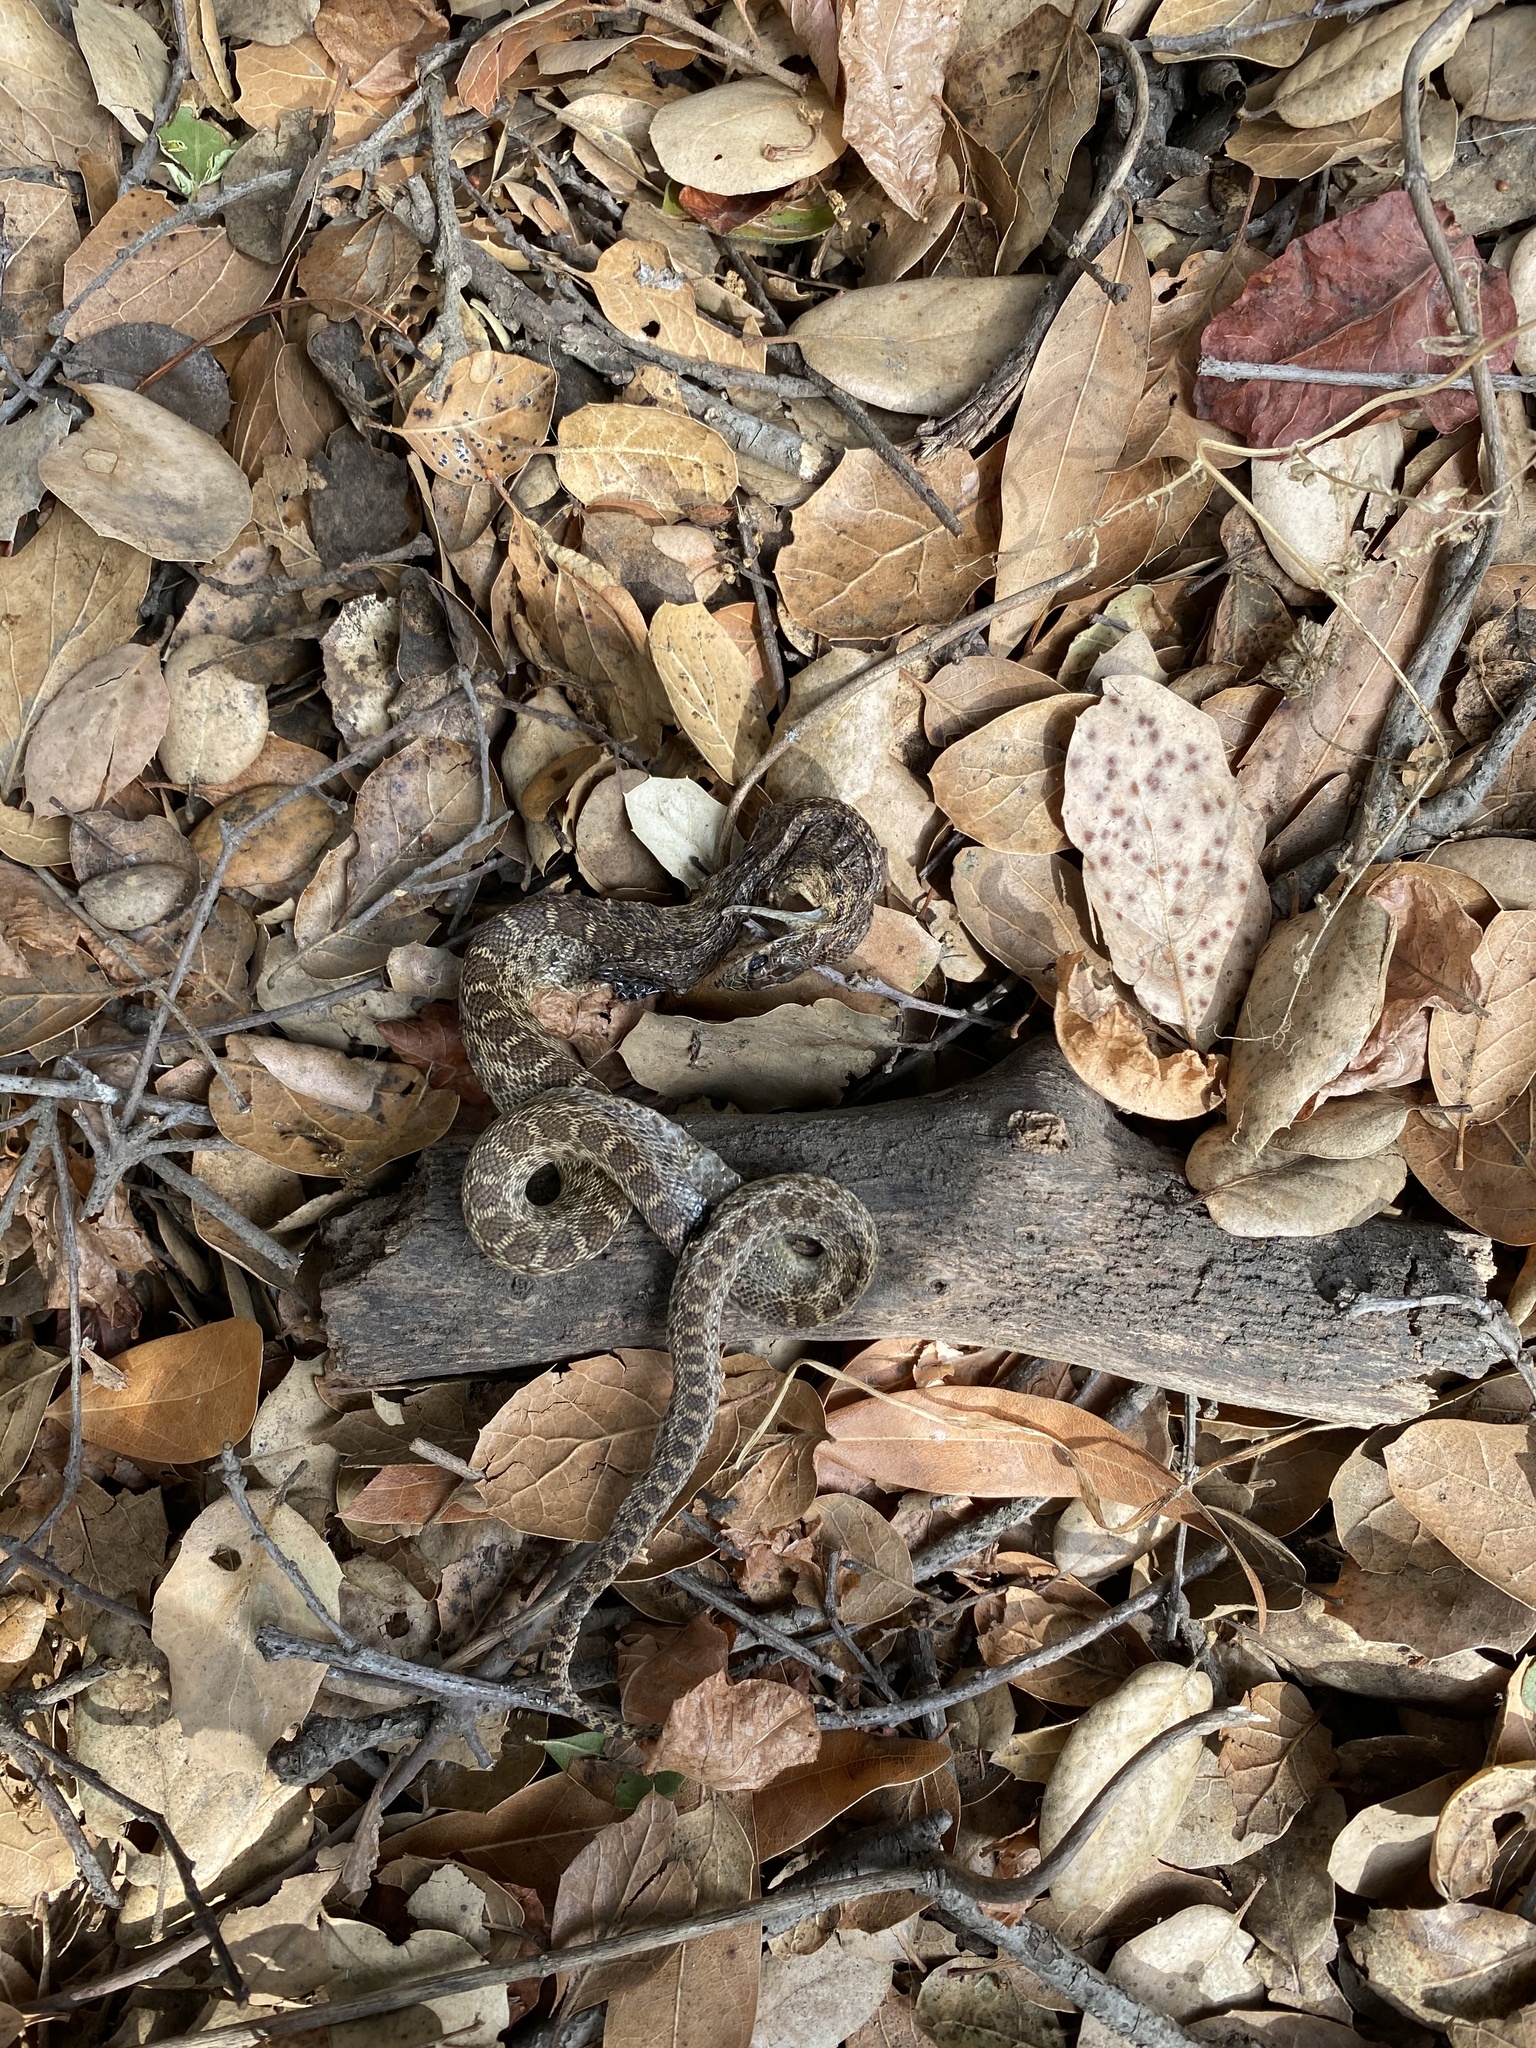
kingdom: Animalia
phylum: Chordata
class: Squamata
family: Colubridae
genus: Pituophis
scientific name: Pituophis catenifer
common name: Gopher snake
